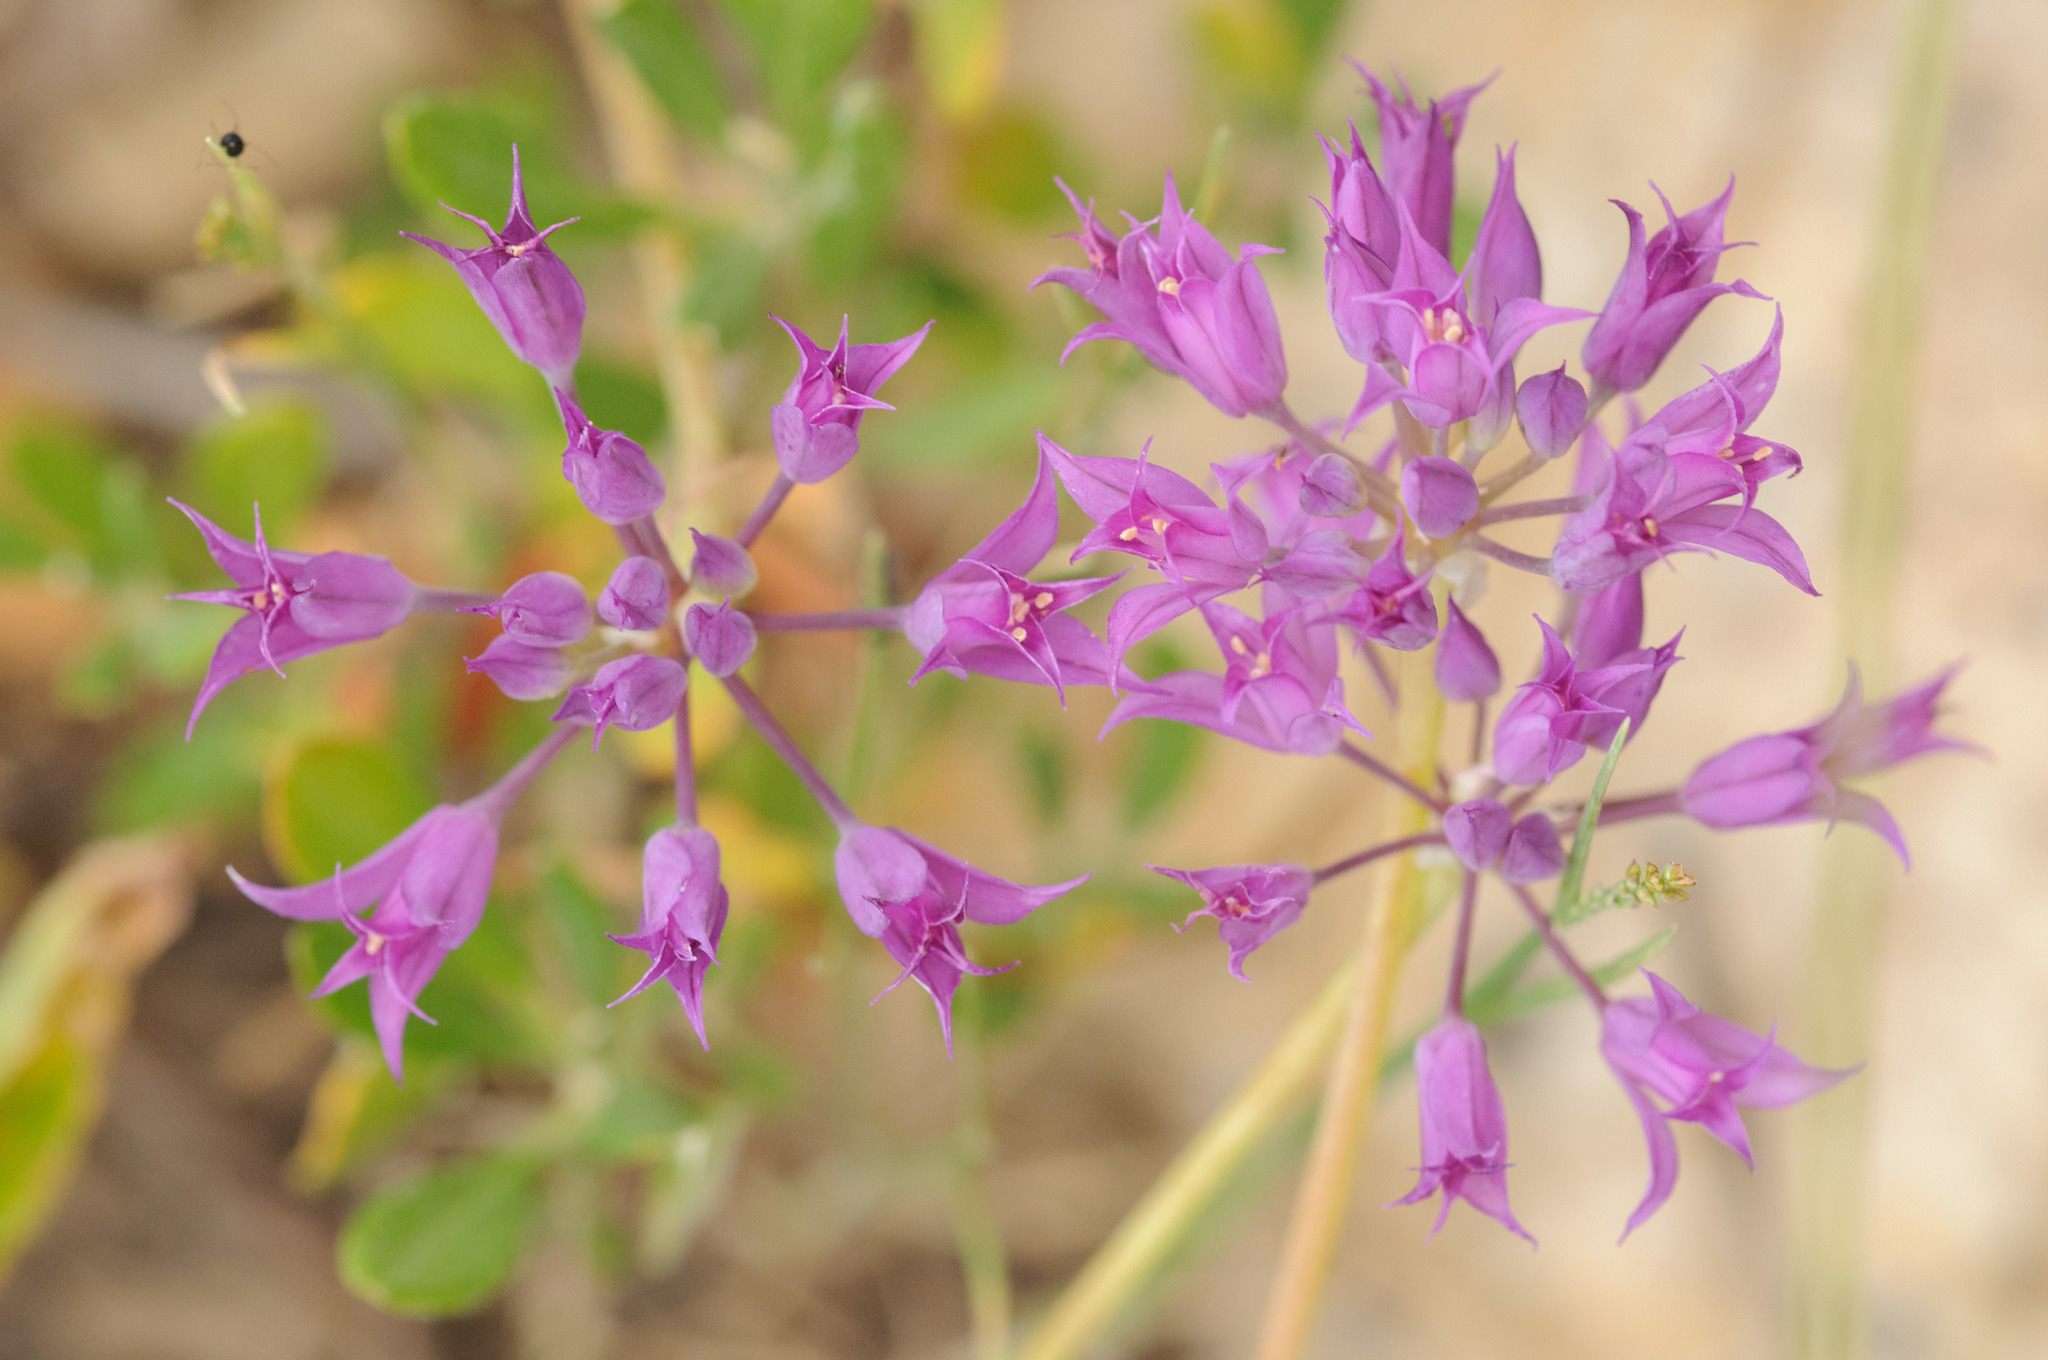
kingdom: Plantae
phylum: Tracheophyta
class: Liliopsida
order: Asparagales
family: Amaryllidaceae
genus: Allium
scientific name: Allium acuminatum
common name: Hooker's onion
